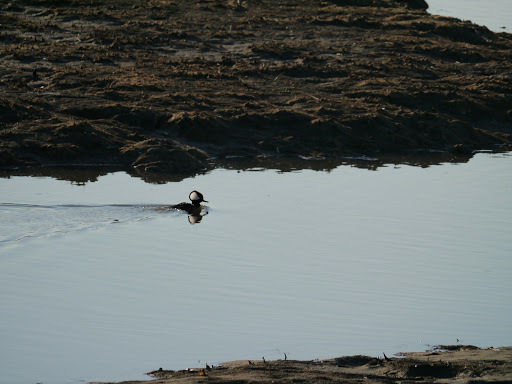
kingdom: Animalia
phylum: Chordata
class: Aves
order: Anseriformes
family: Anatidae
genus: Lophodytes
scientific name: Lophodytes cucullatus
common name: Hooded merganser
